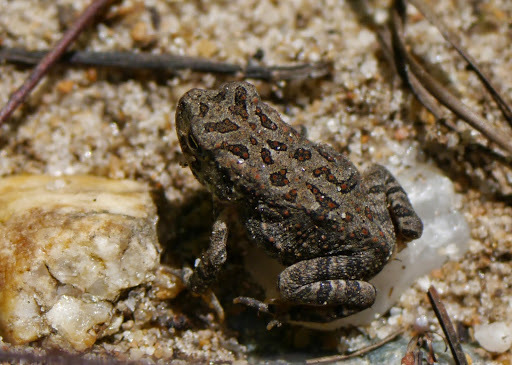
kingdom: Animalia
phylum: Chordata
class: Amphibia
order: Anura
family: Bufonidae
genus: Anaxyrus
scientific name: Anaxyrus fowleri
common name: Fowler's toad
